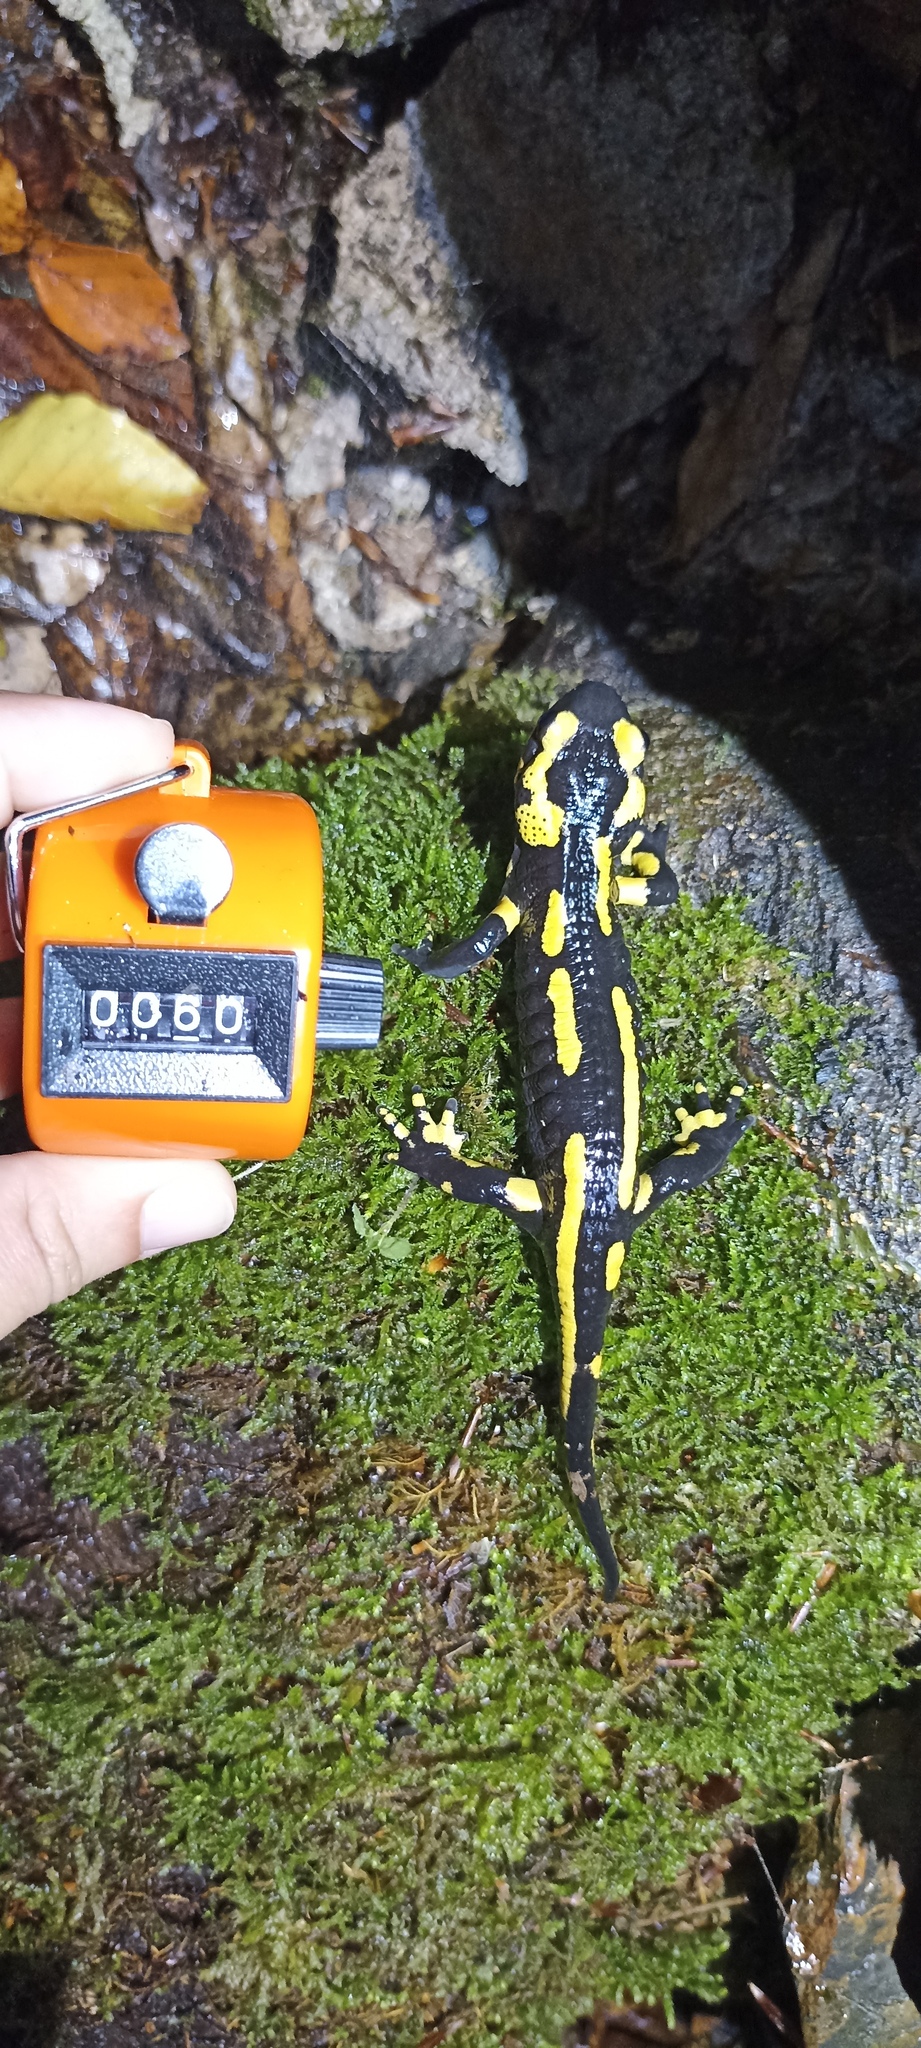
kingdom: Animalia
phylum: Chordata
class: Amphibia
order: Caudata
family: Salamandridae
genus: Salamandra
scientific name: Salamandra salamandra
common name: Fire salamander
